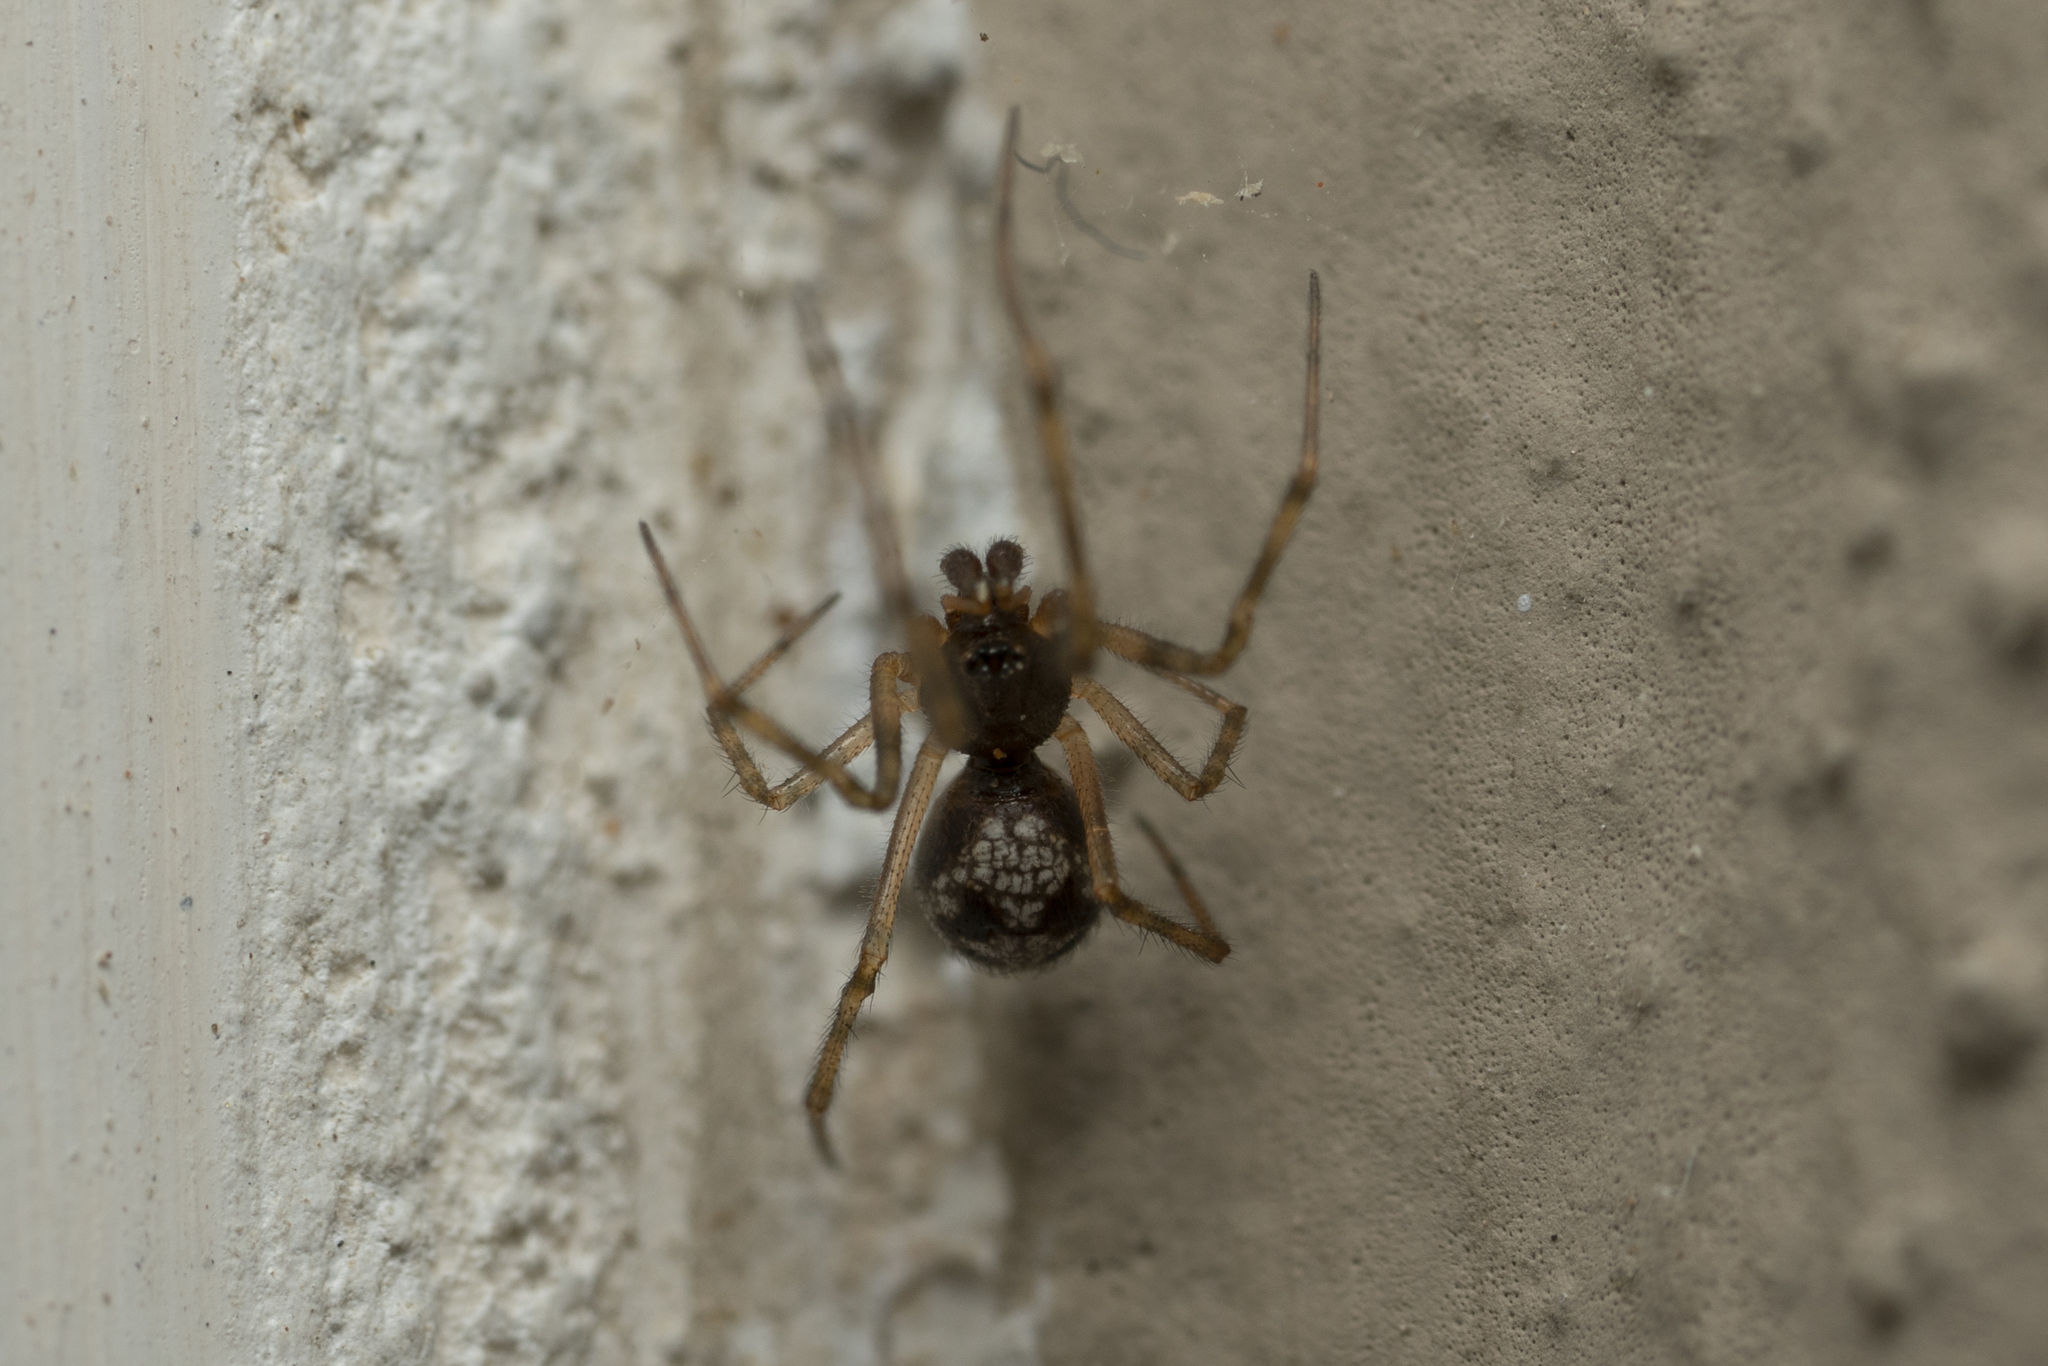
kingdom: Animalia
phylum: Arthropoda
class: Arachnida
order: Araneae
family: Theridiidae
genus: Steatoda
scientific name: Steatoda triangulosa
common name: Triangulate bud spider
